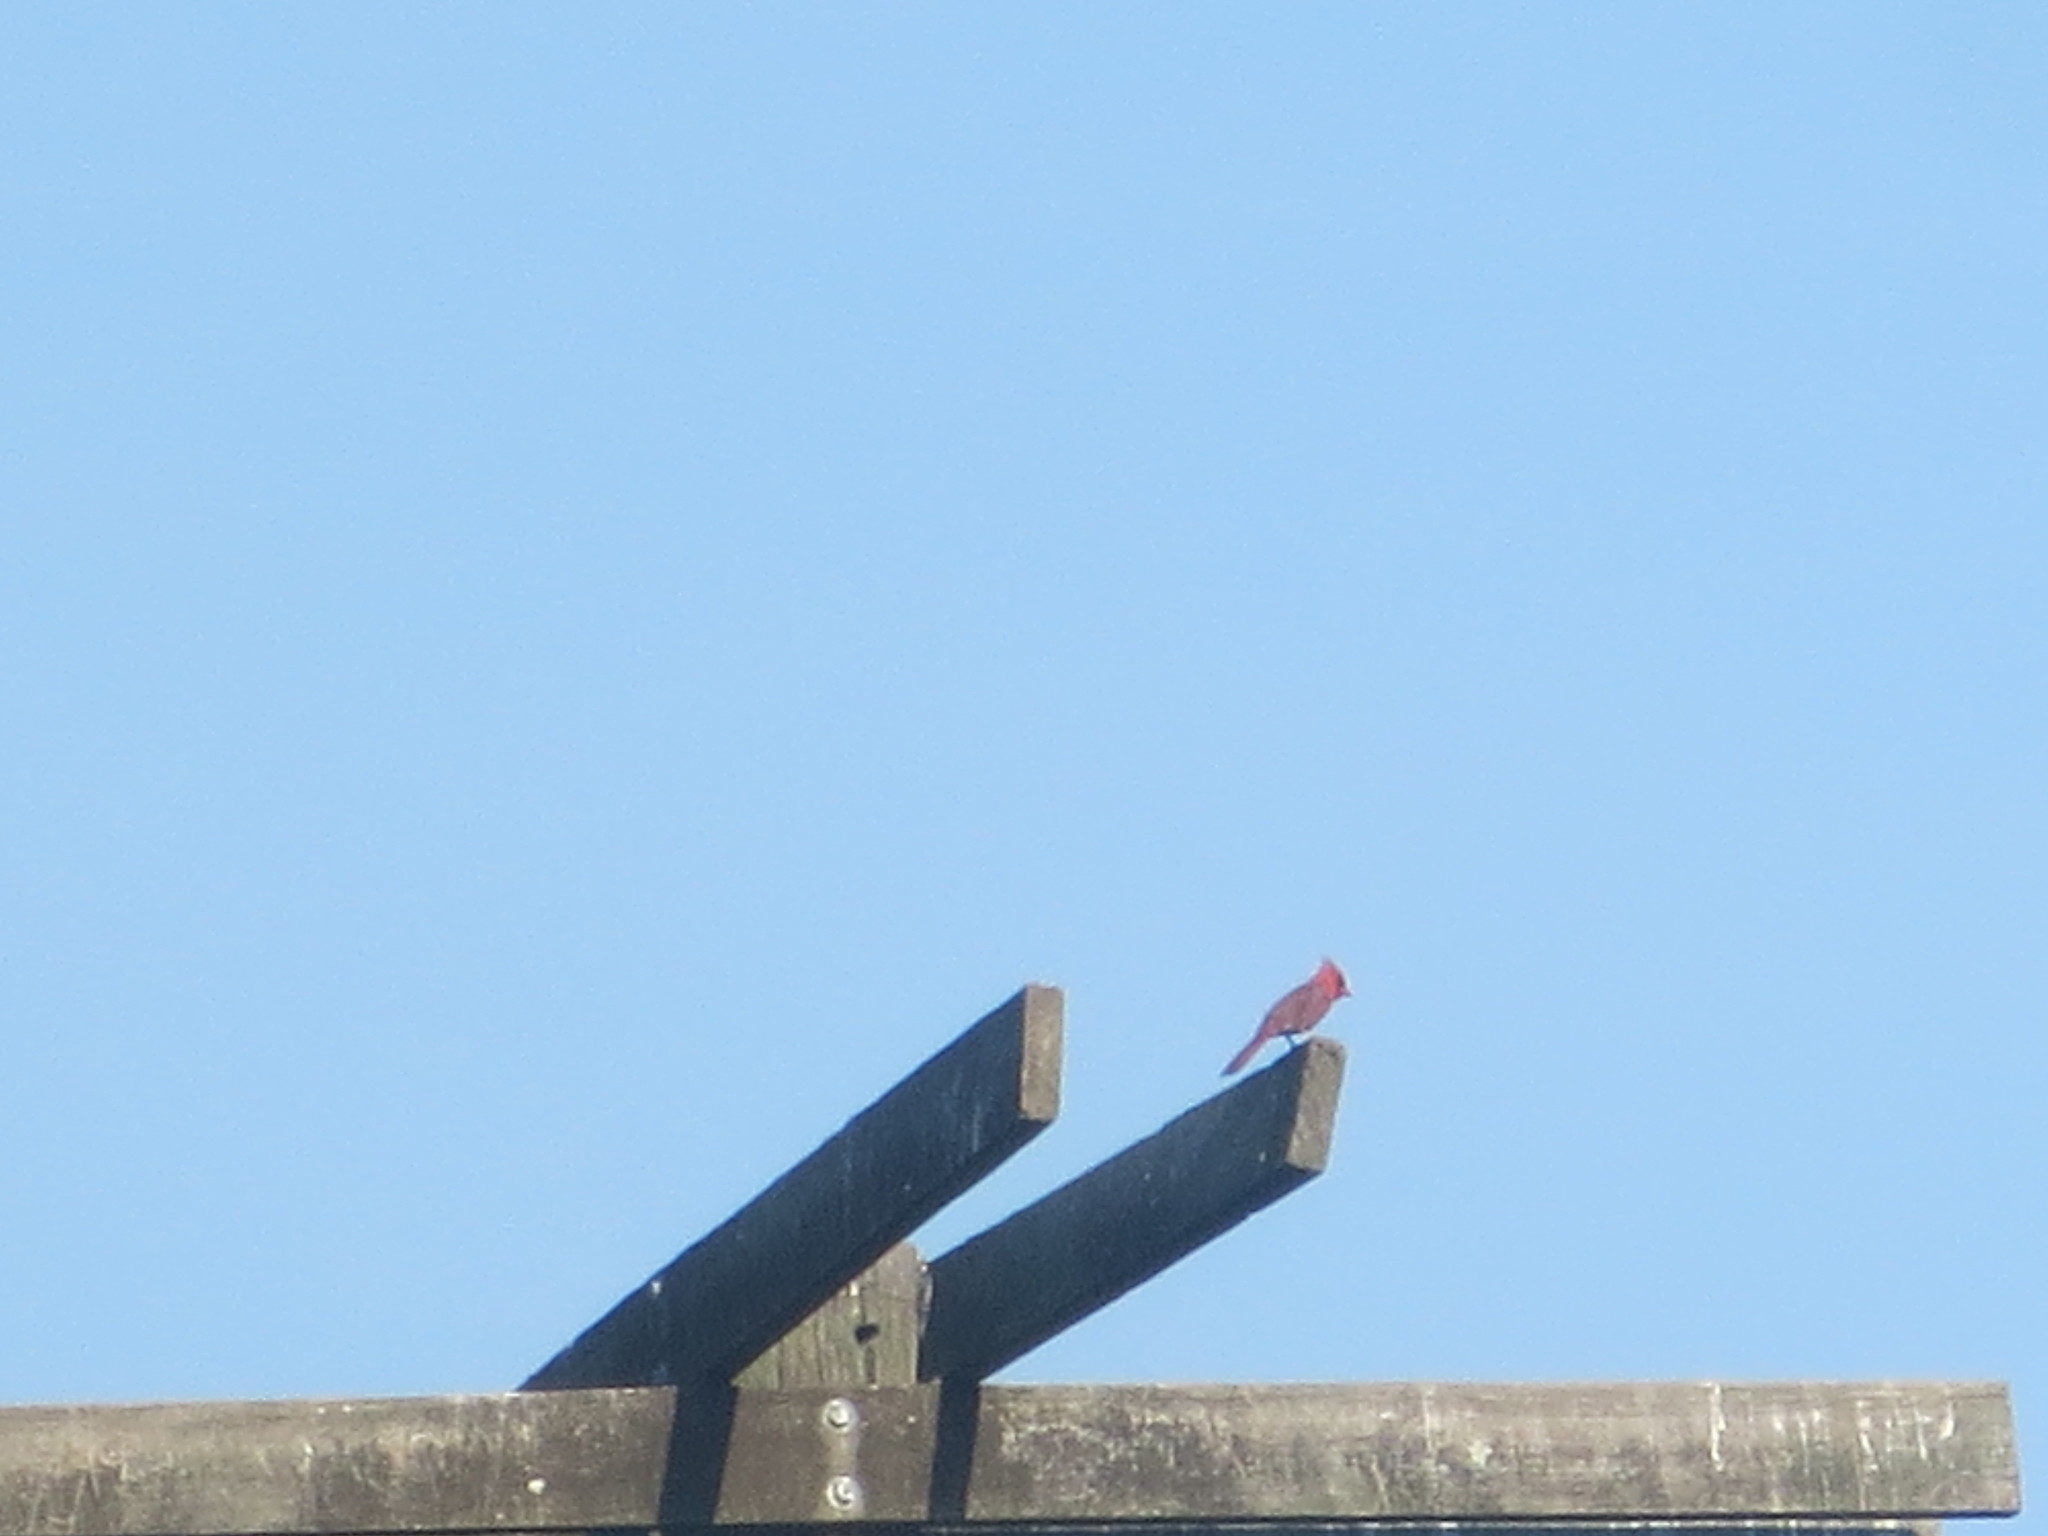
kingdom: Animalia
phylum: Chordata
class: Aves
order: Passeriformes
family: Cardinalidae
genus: Cardinalis
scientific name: Cardinalis cardinalis
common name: Northern cardinal
